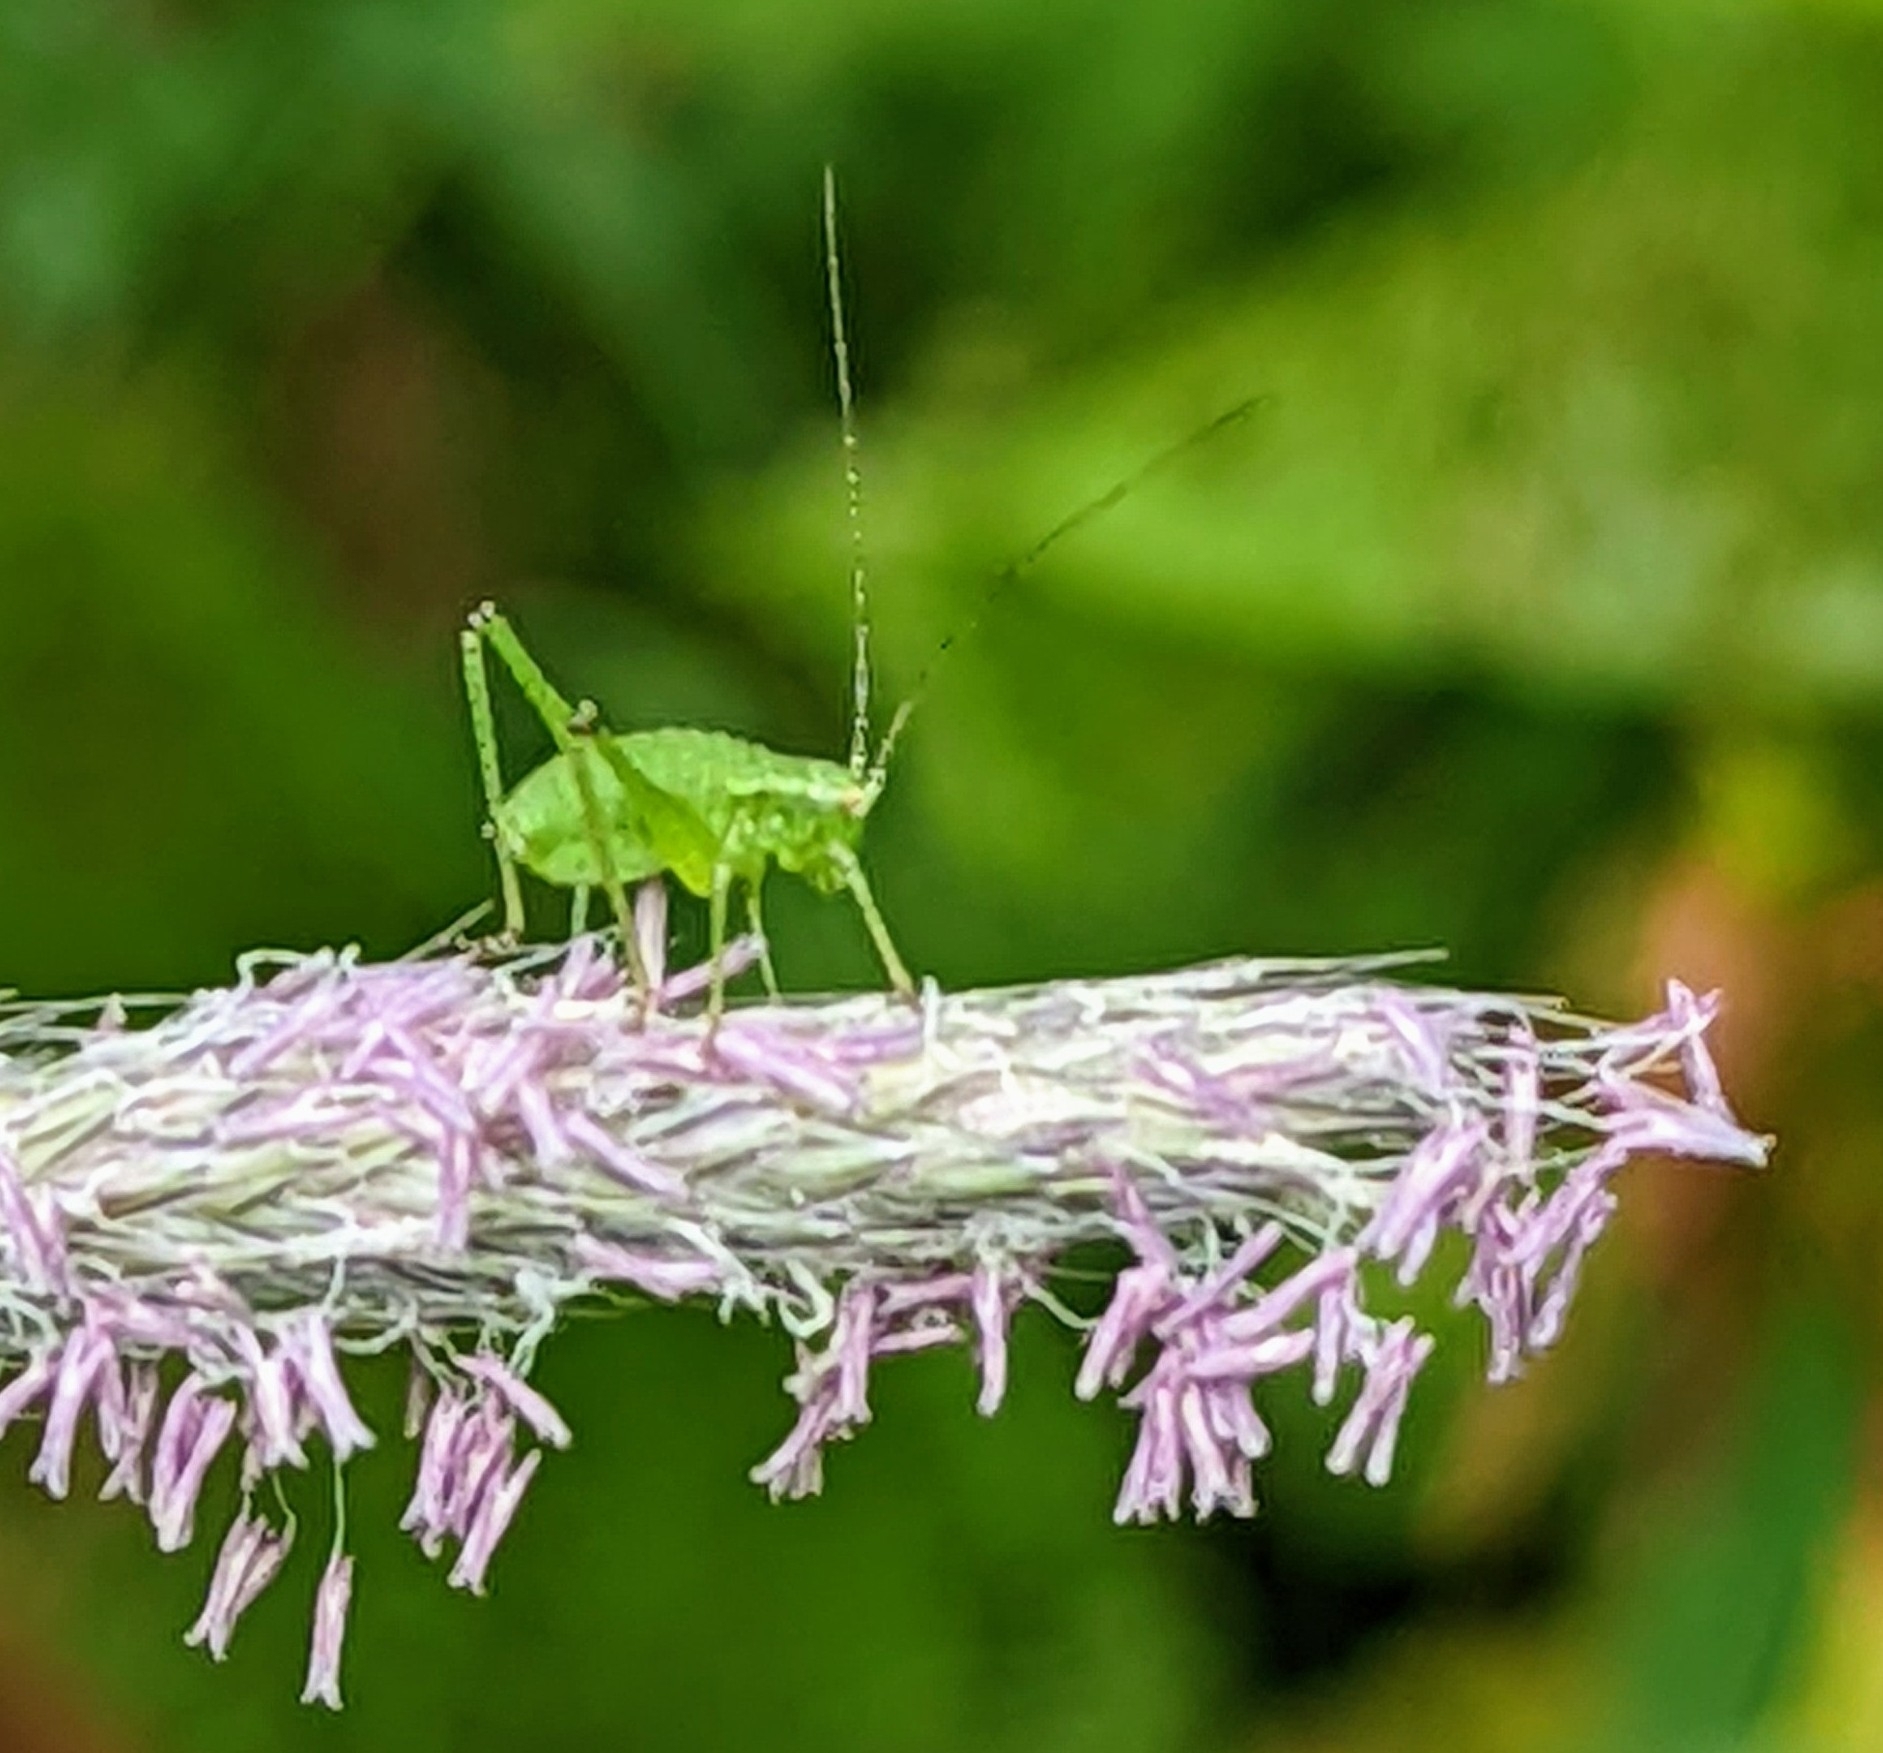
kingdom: Animalia
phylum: Arthropoda
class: Insecta
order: Orthoptera
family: Tettigoniidae
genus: Leptophyes
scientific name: Leptophyes punctatissima
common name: Speckled bush-cricket
